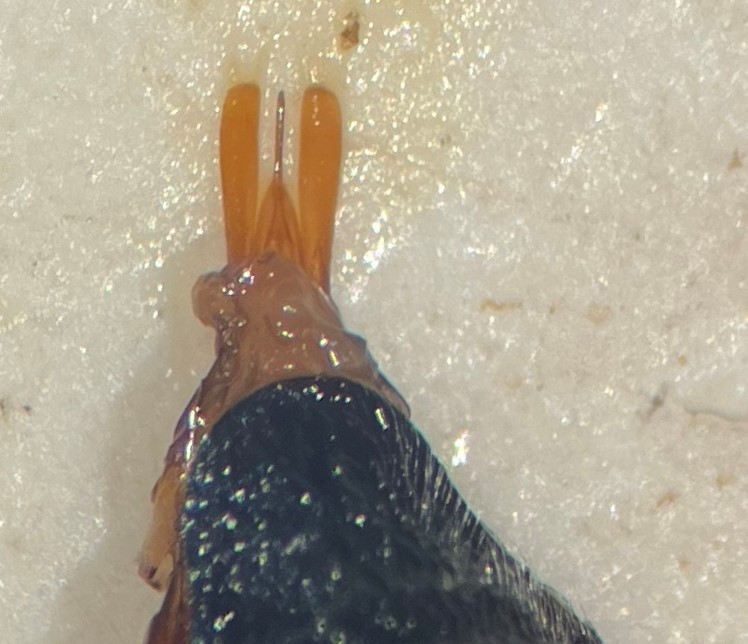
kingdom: Animalia
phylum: Arthropoda
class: Insecta
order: Coleoptera
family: Gyrinidae
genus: Gyrinus
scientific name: Gyrinus elevatus
